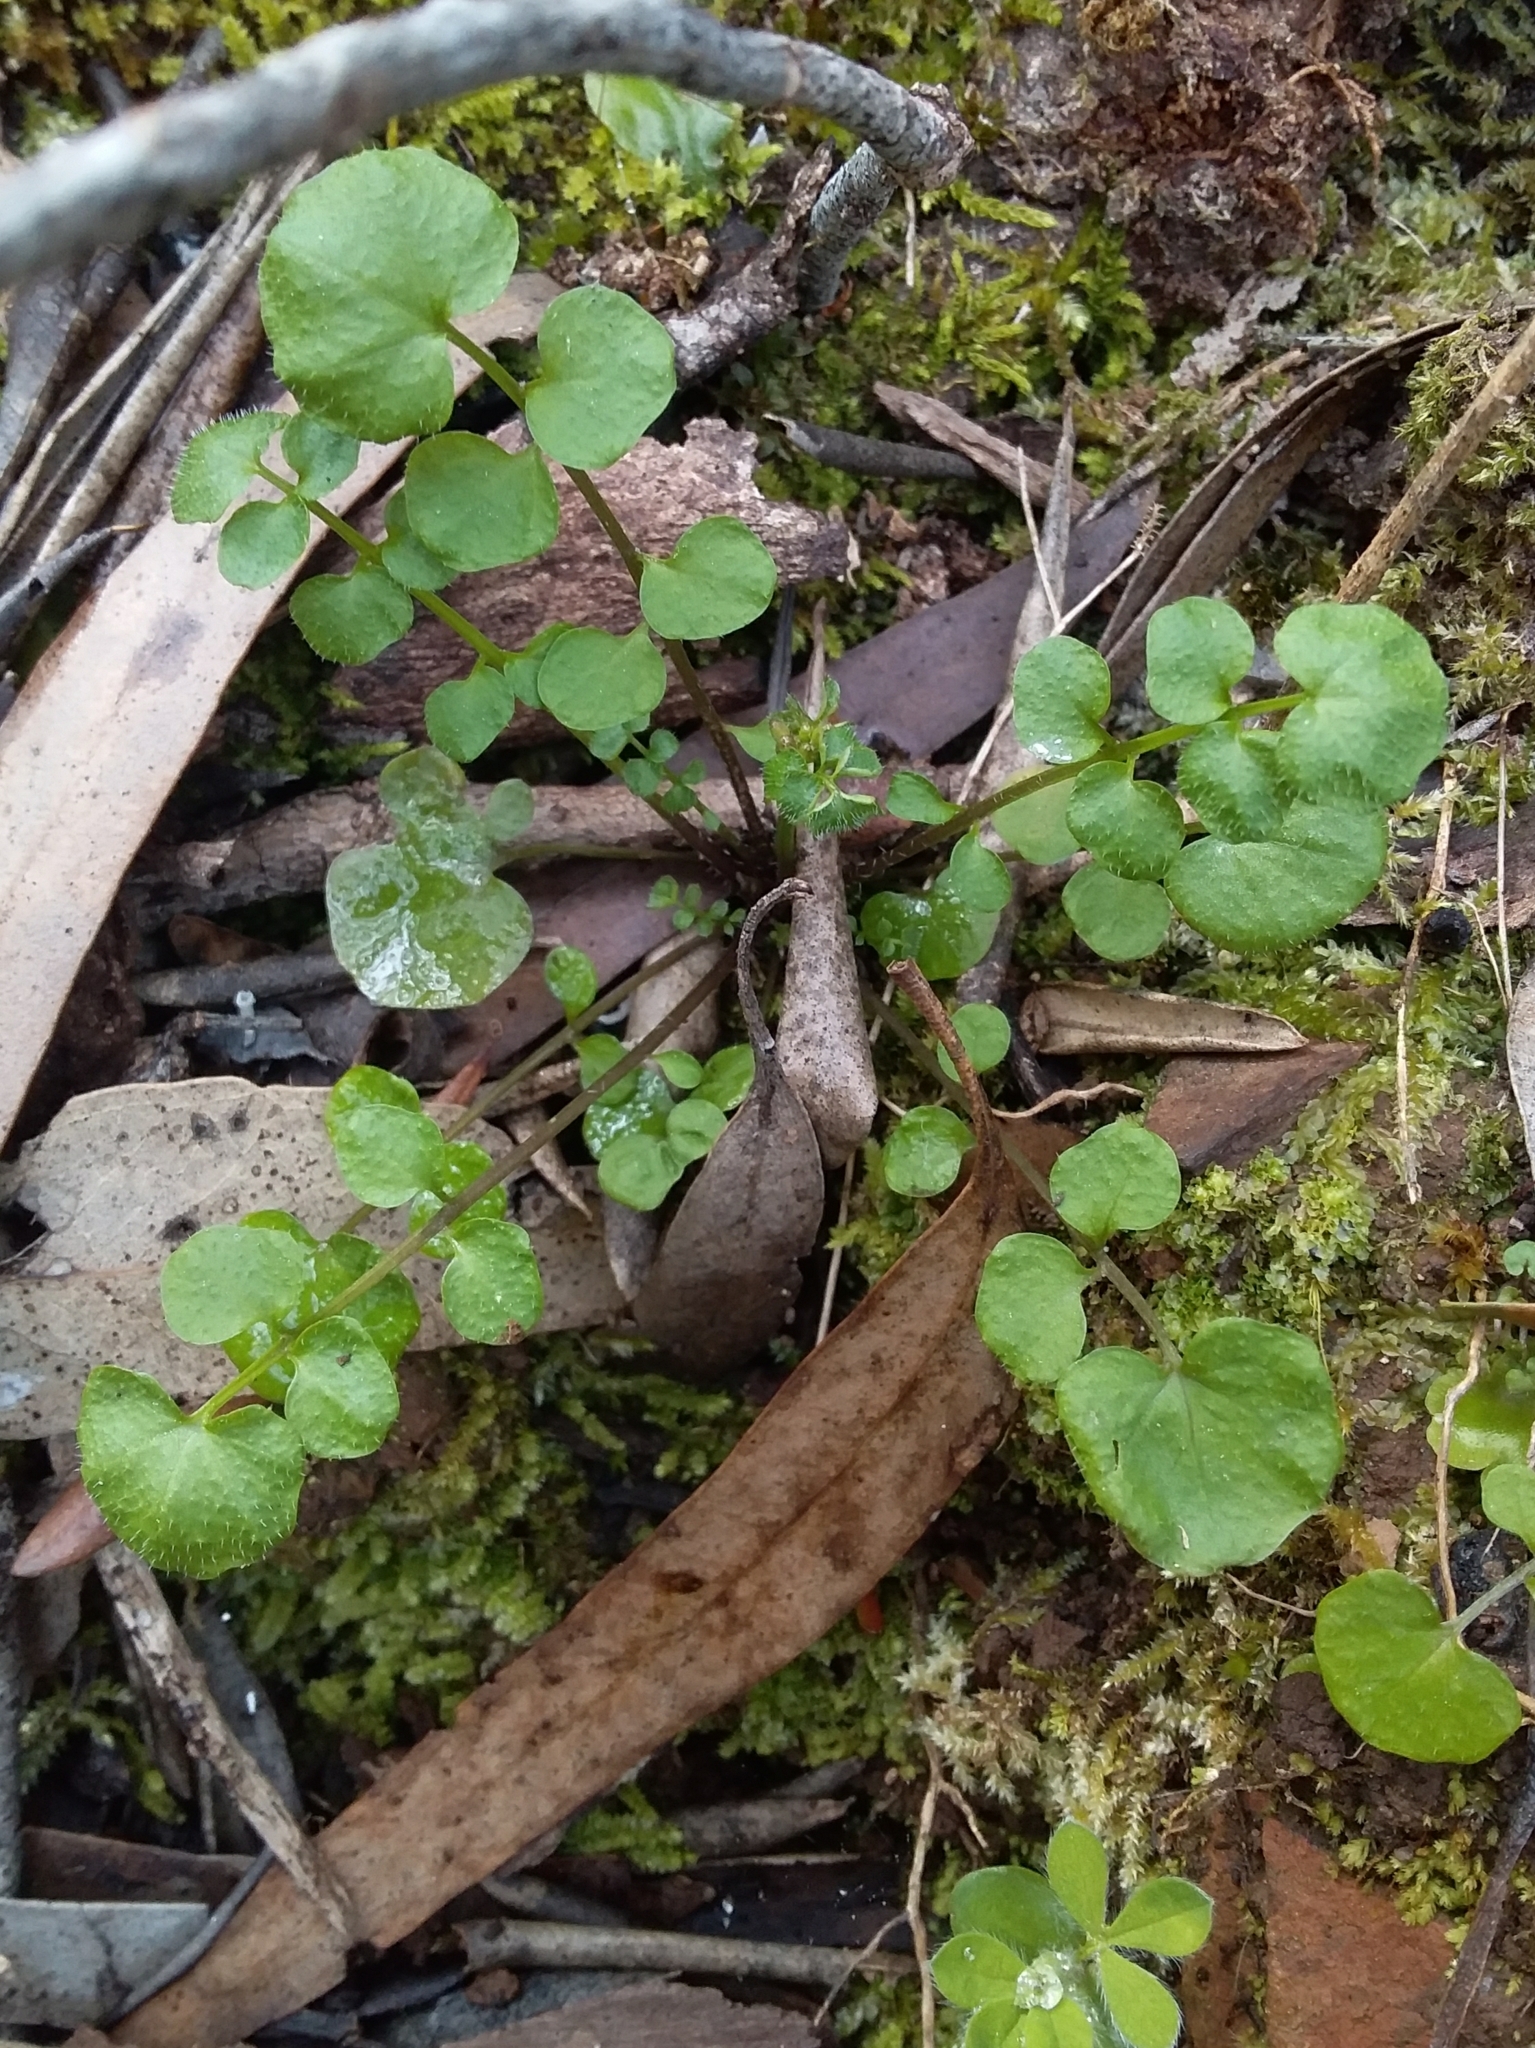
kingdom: Plantae
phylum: Tracheophyta
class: Magnoliopsida
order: Brassicales
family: Brassicaceae
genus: Cardamine
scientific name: Cardamine hirsuta
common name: Hairy bittercress
